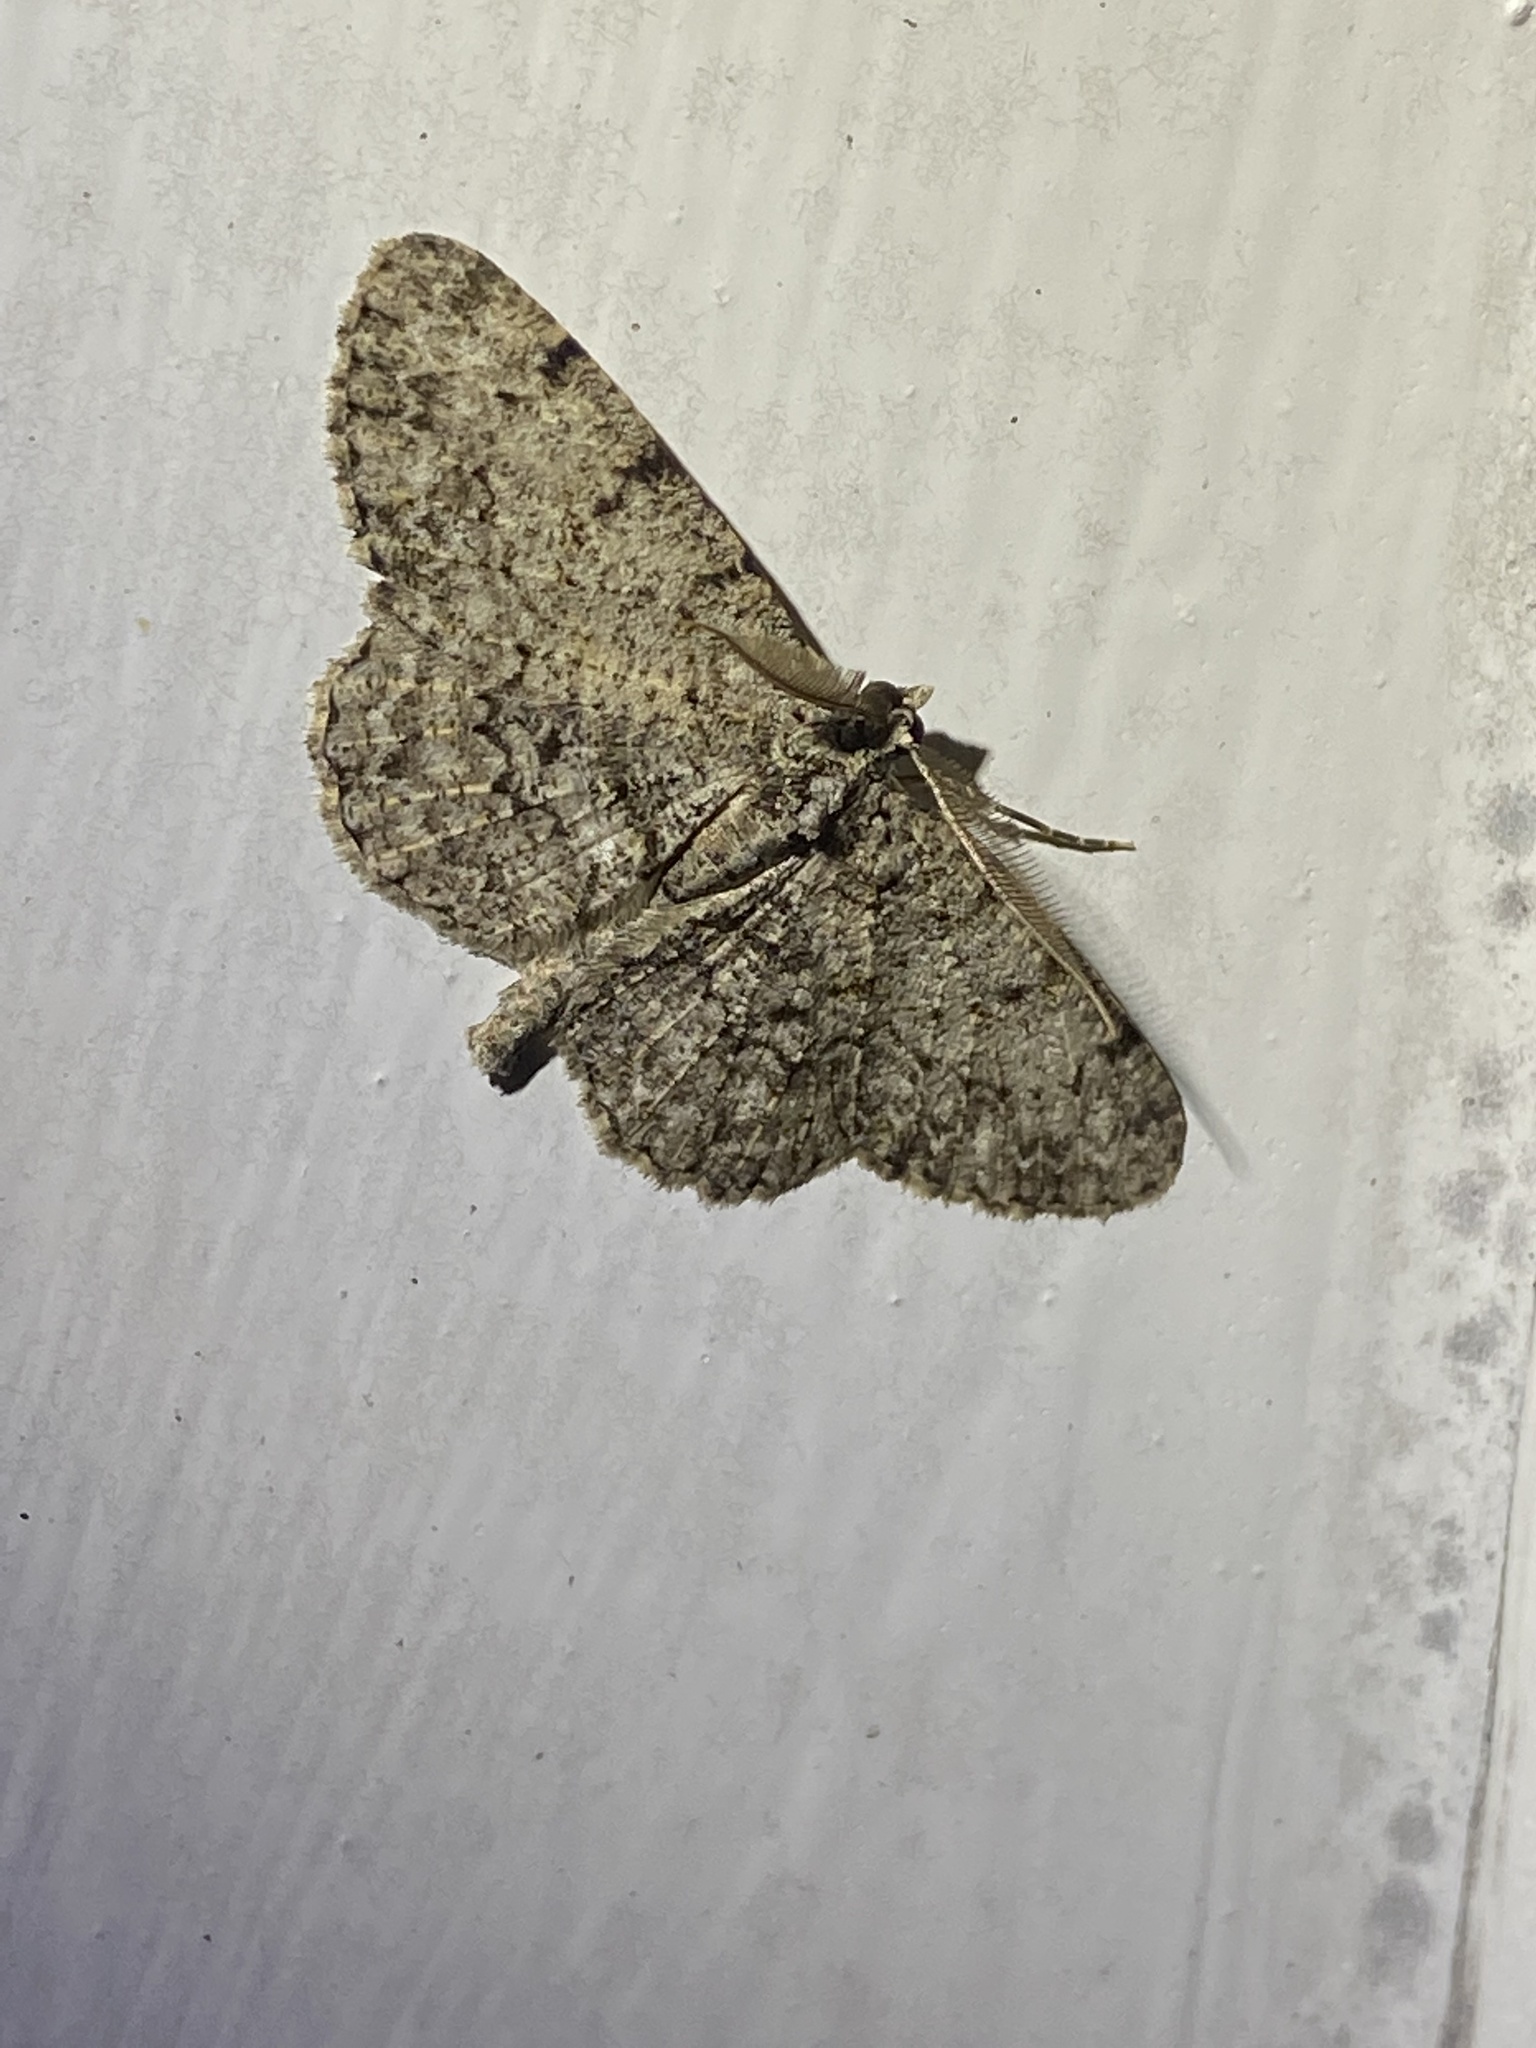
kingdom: Animalia
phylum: Arthropoda
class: Insecta
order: Lepidoptera
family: Geometridae
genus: Protoboarmia
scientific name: Protoboarmia porcelaria
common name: Porcelain gray
